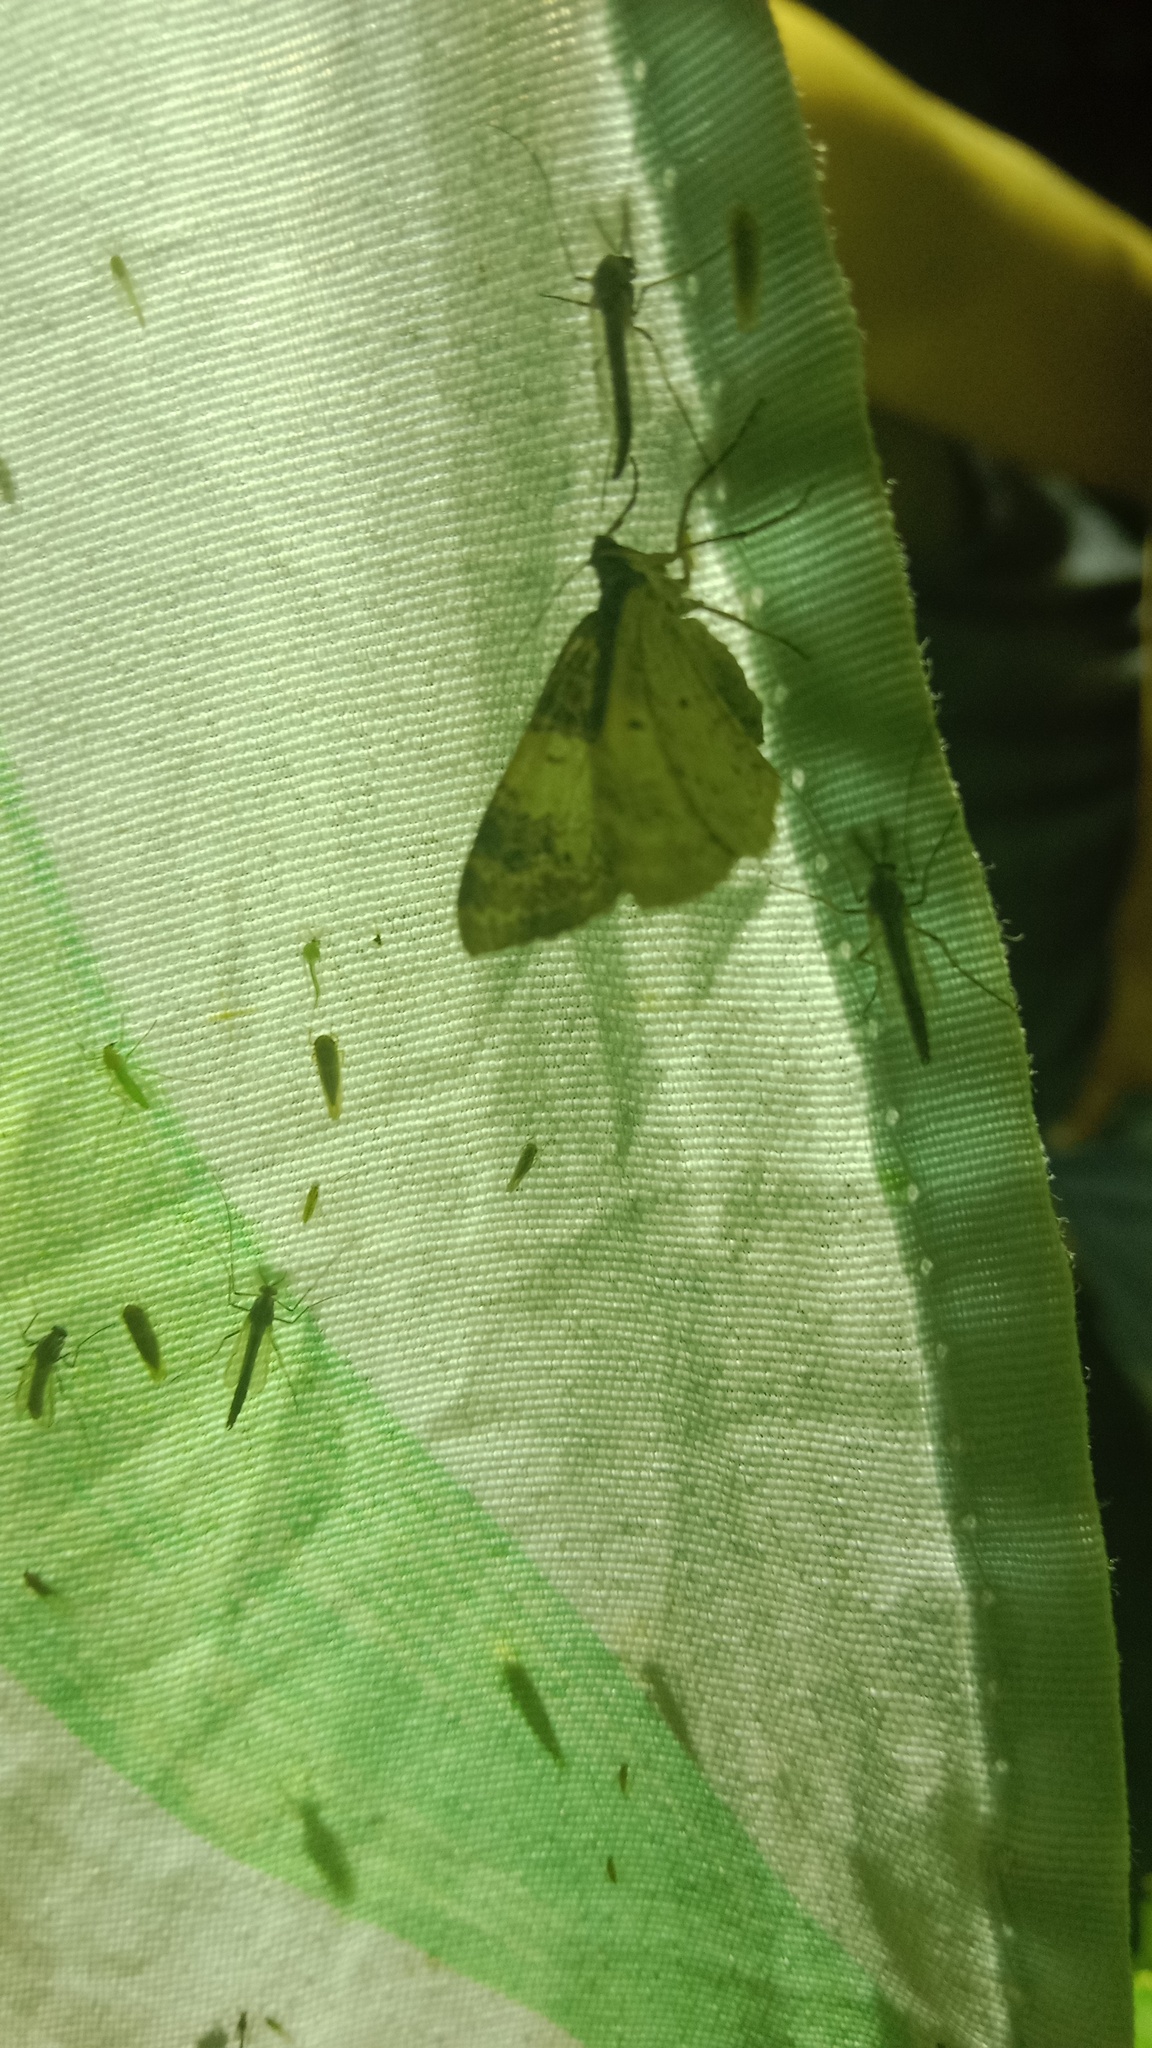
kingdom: Animalia
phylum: Arthropoda
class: Insecta
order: Lepidoptera
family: Geometridae
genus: Catarhoe
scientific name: Catarhoe cuculata
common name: Royal mantle
